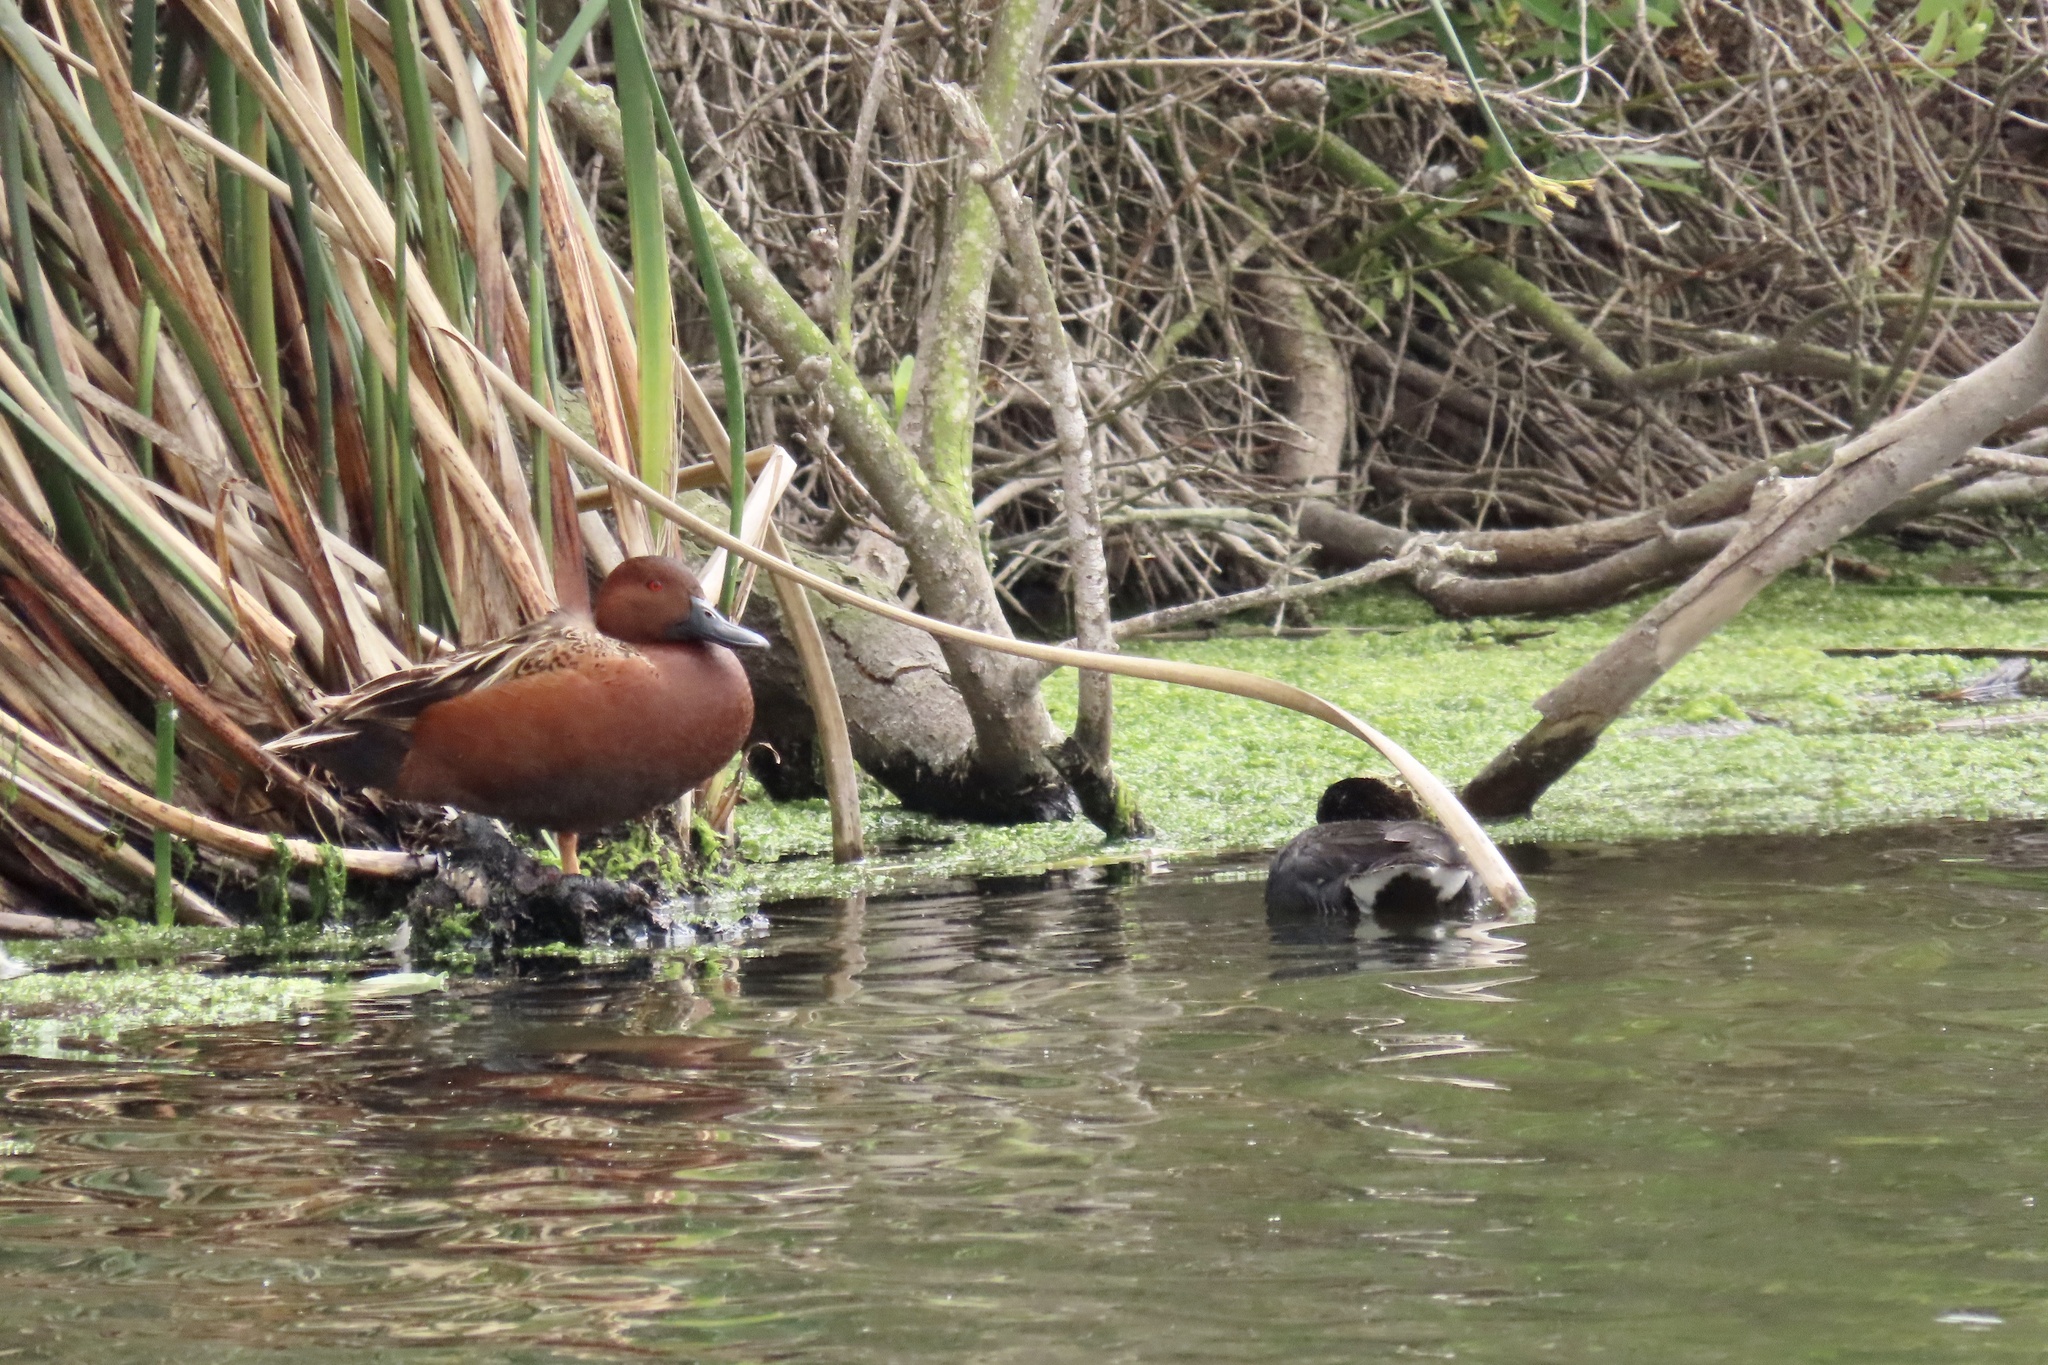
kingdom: Animalia
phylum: Chordata
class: Aves
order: Anseriformes
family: Anatidae
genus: Spatula
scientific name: Spatula cyanoptera
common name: Cinnamon teal
